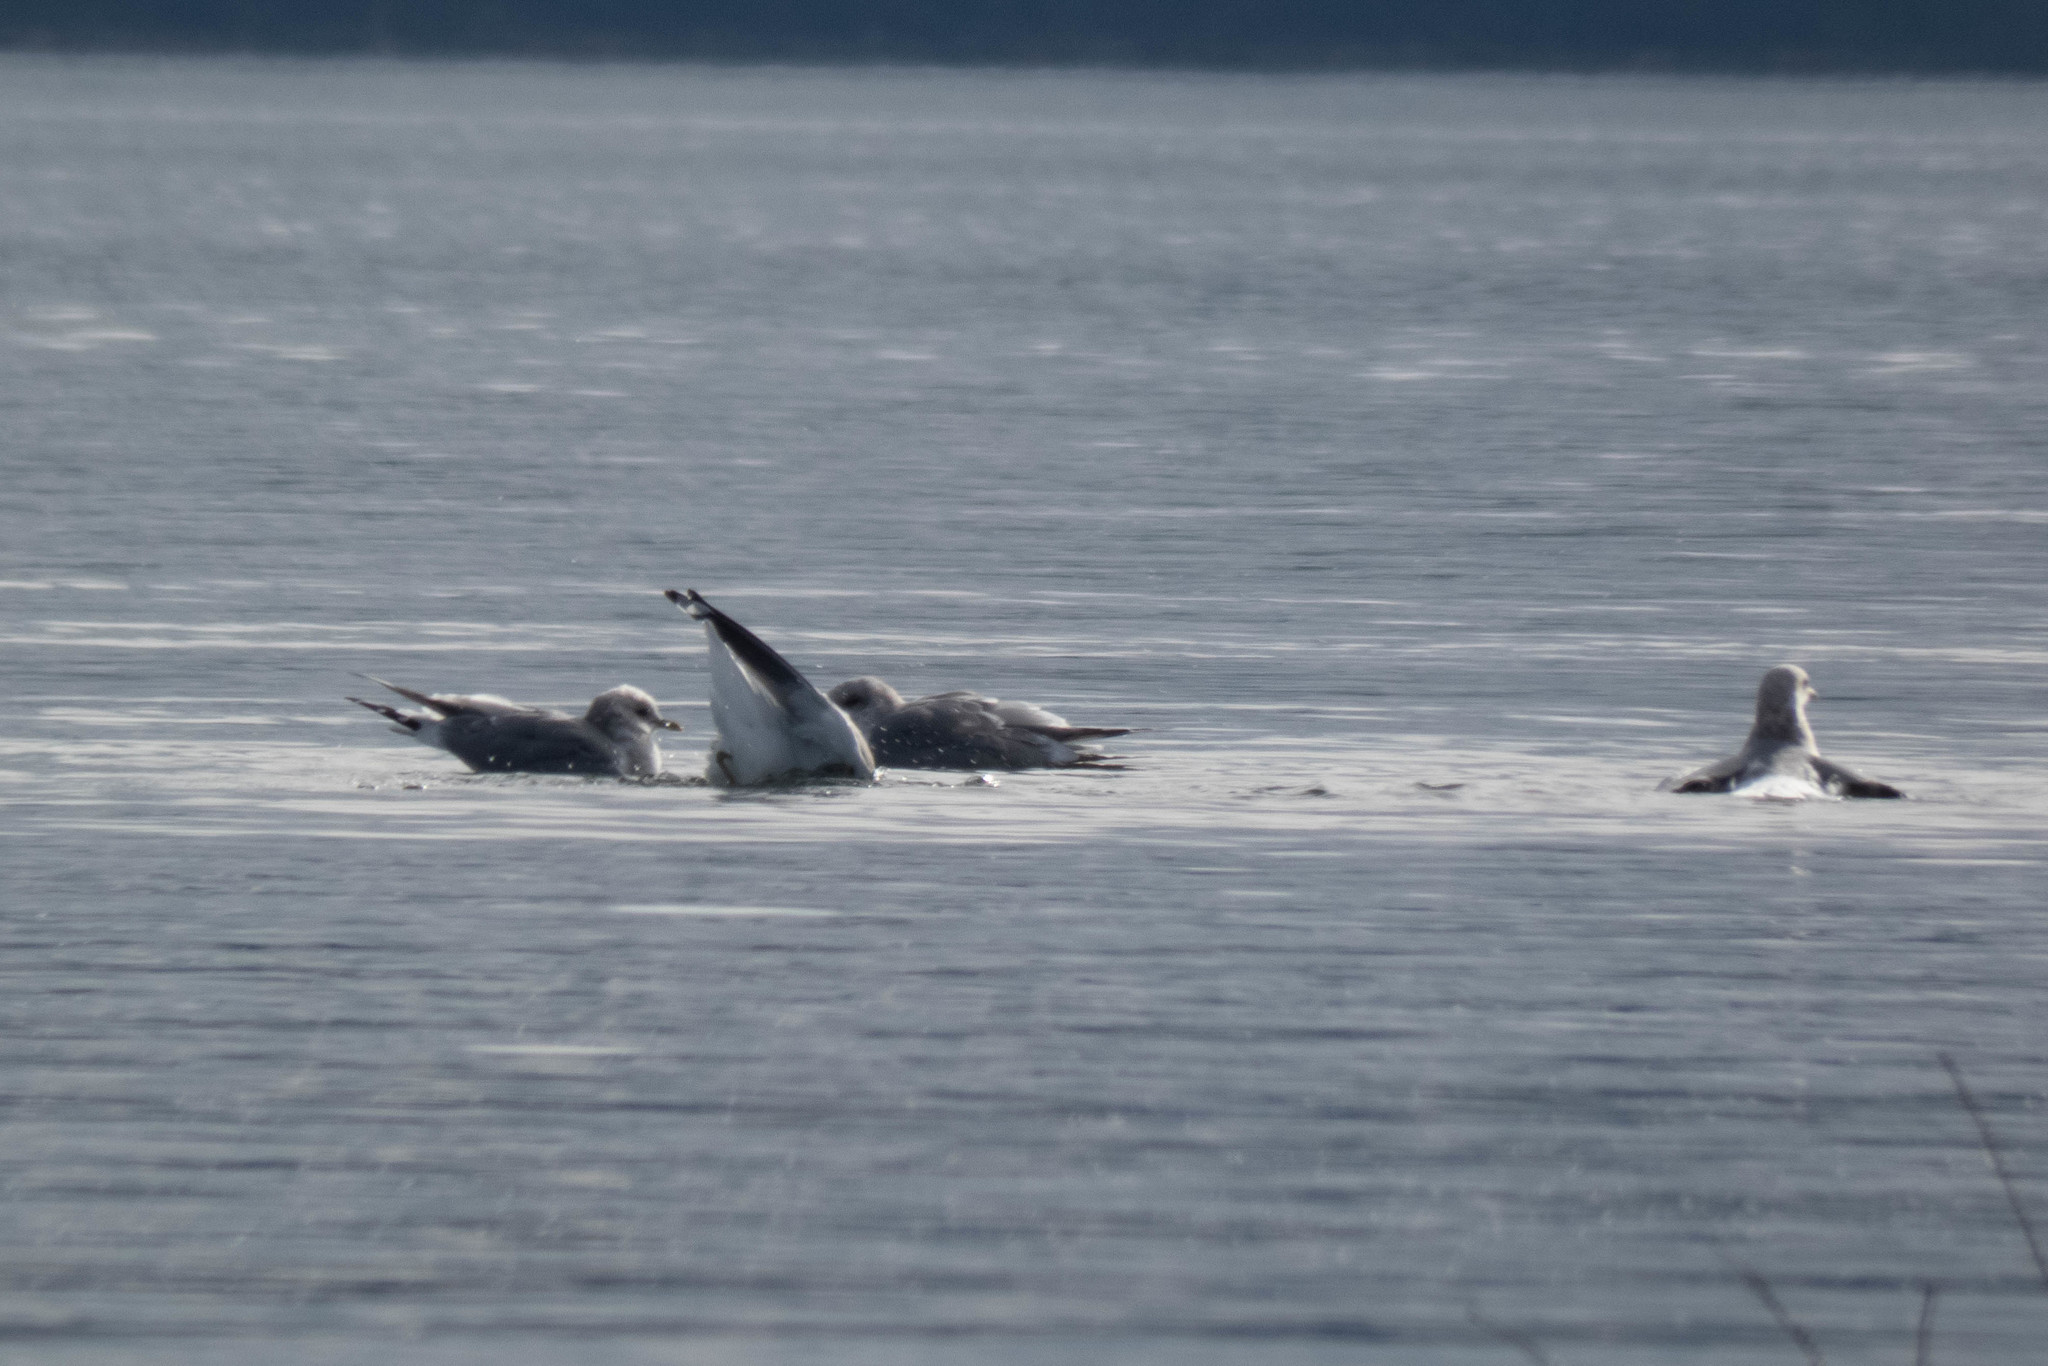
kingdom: Animalia
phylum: Chordata
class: Aves
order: Charadriiformes
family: Laridae
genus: Larus
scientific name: Larus brachyrhynchus
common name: Short-billed gull
